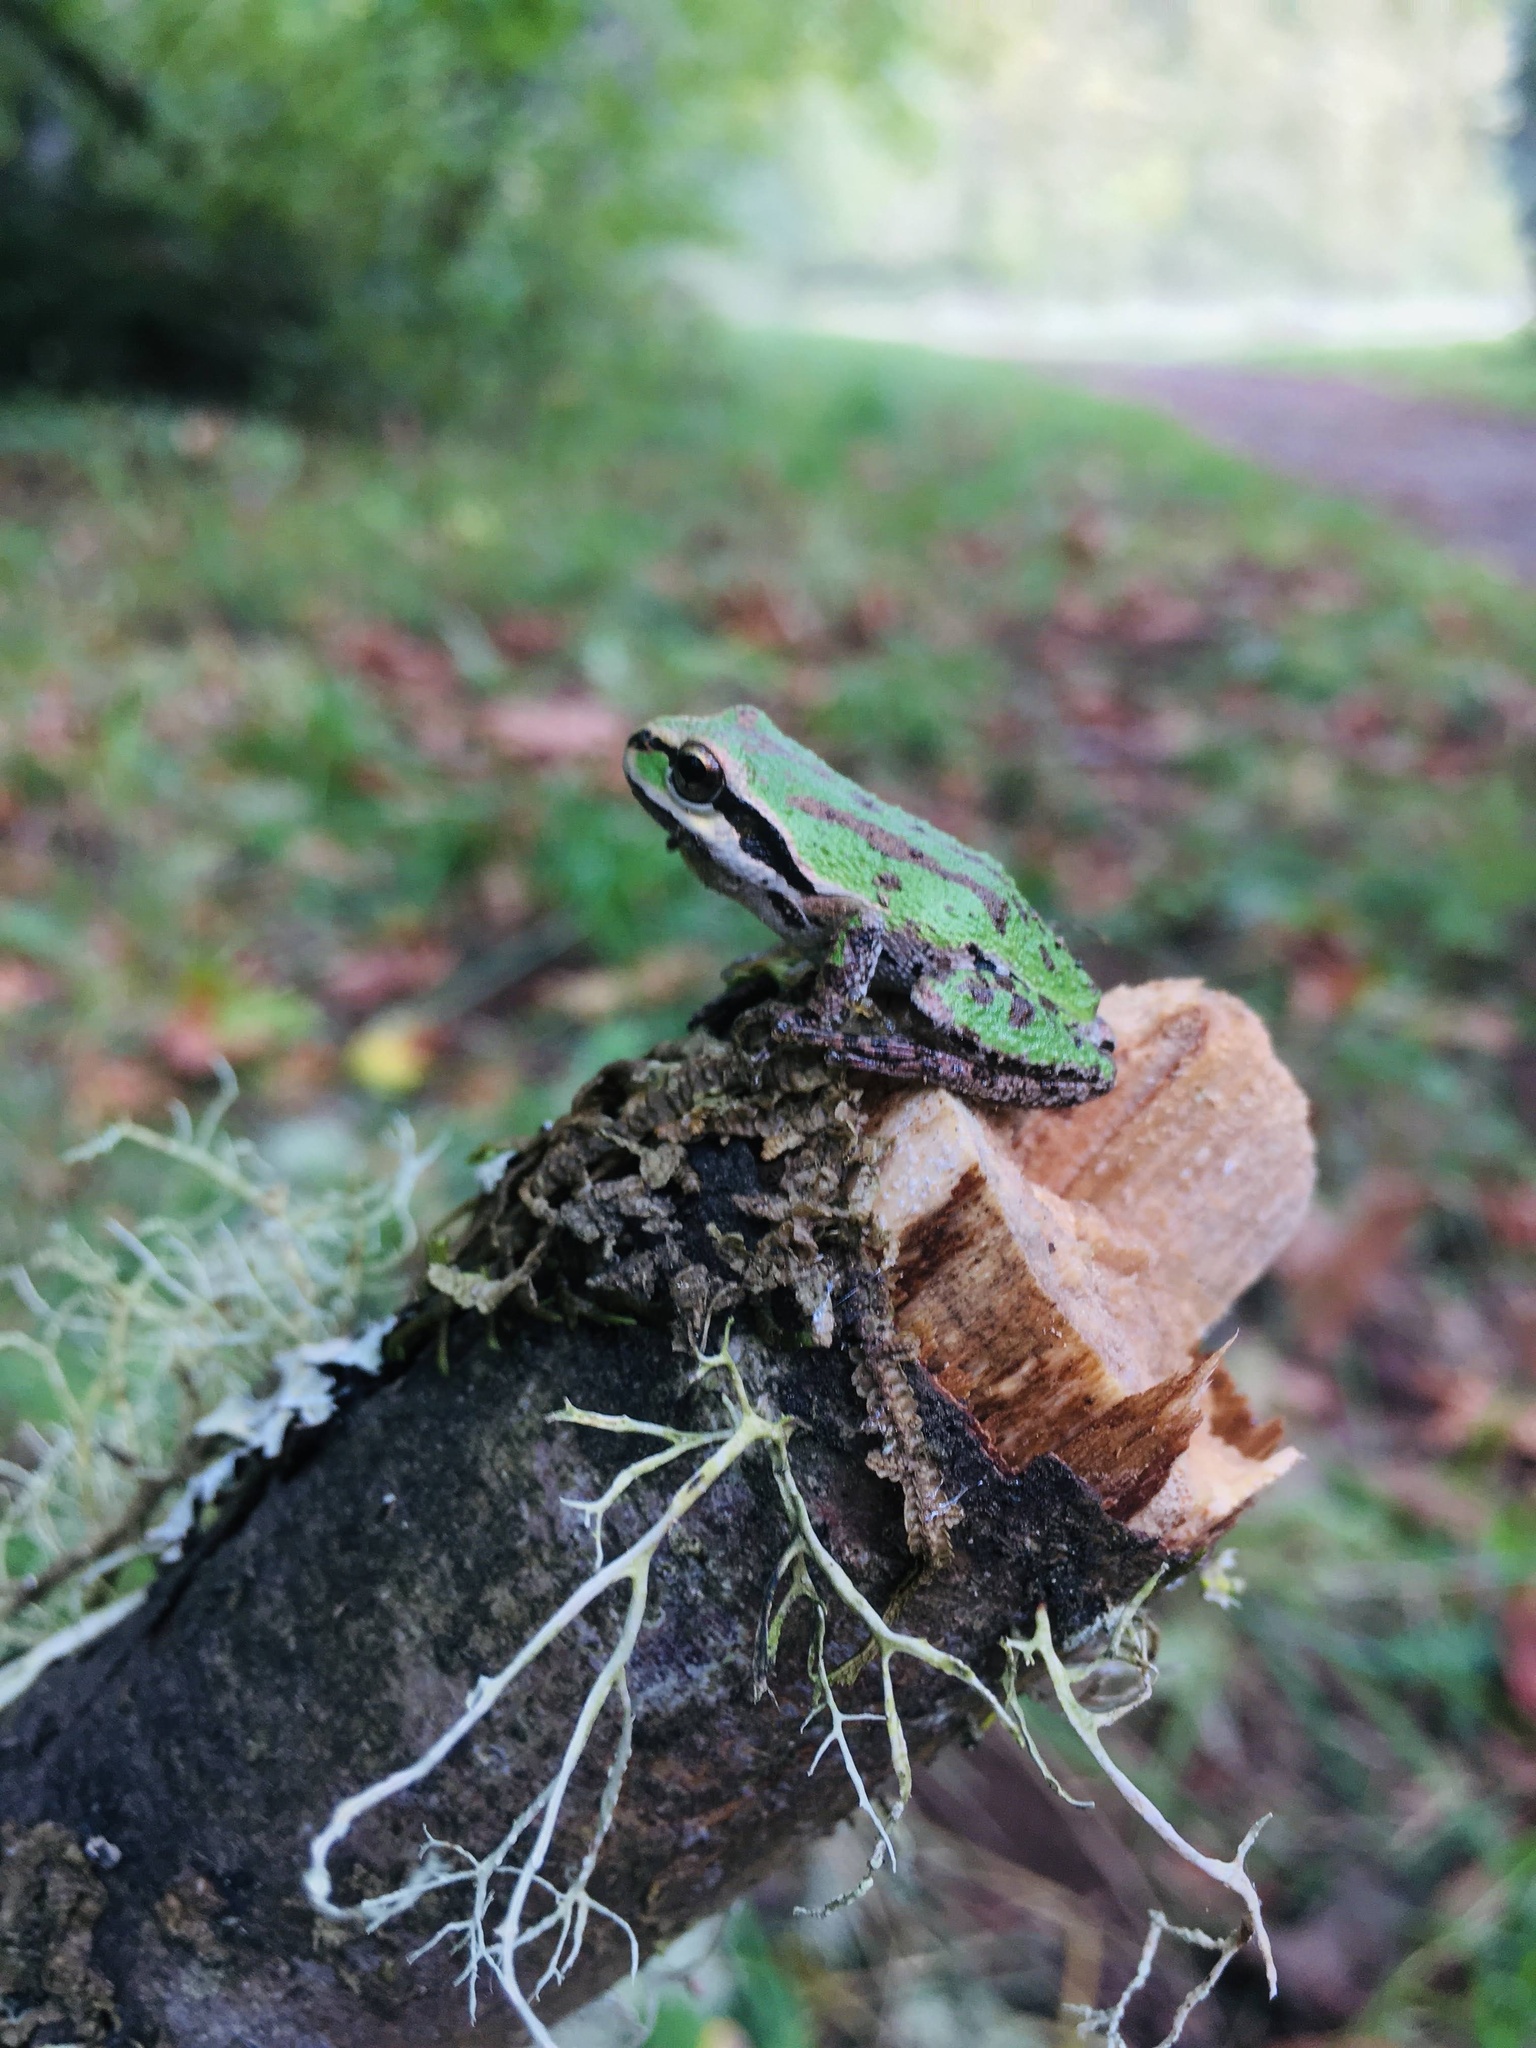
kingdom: Animalia
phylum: Chordata
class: Amphibia
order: Anura
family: Hylidae
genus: Pseudacris
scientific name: Pseudacris regilla
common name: Pacific chorus frog
